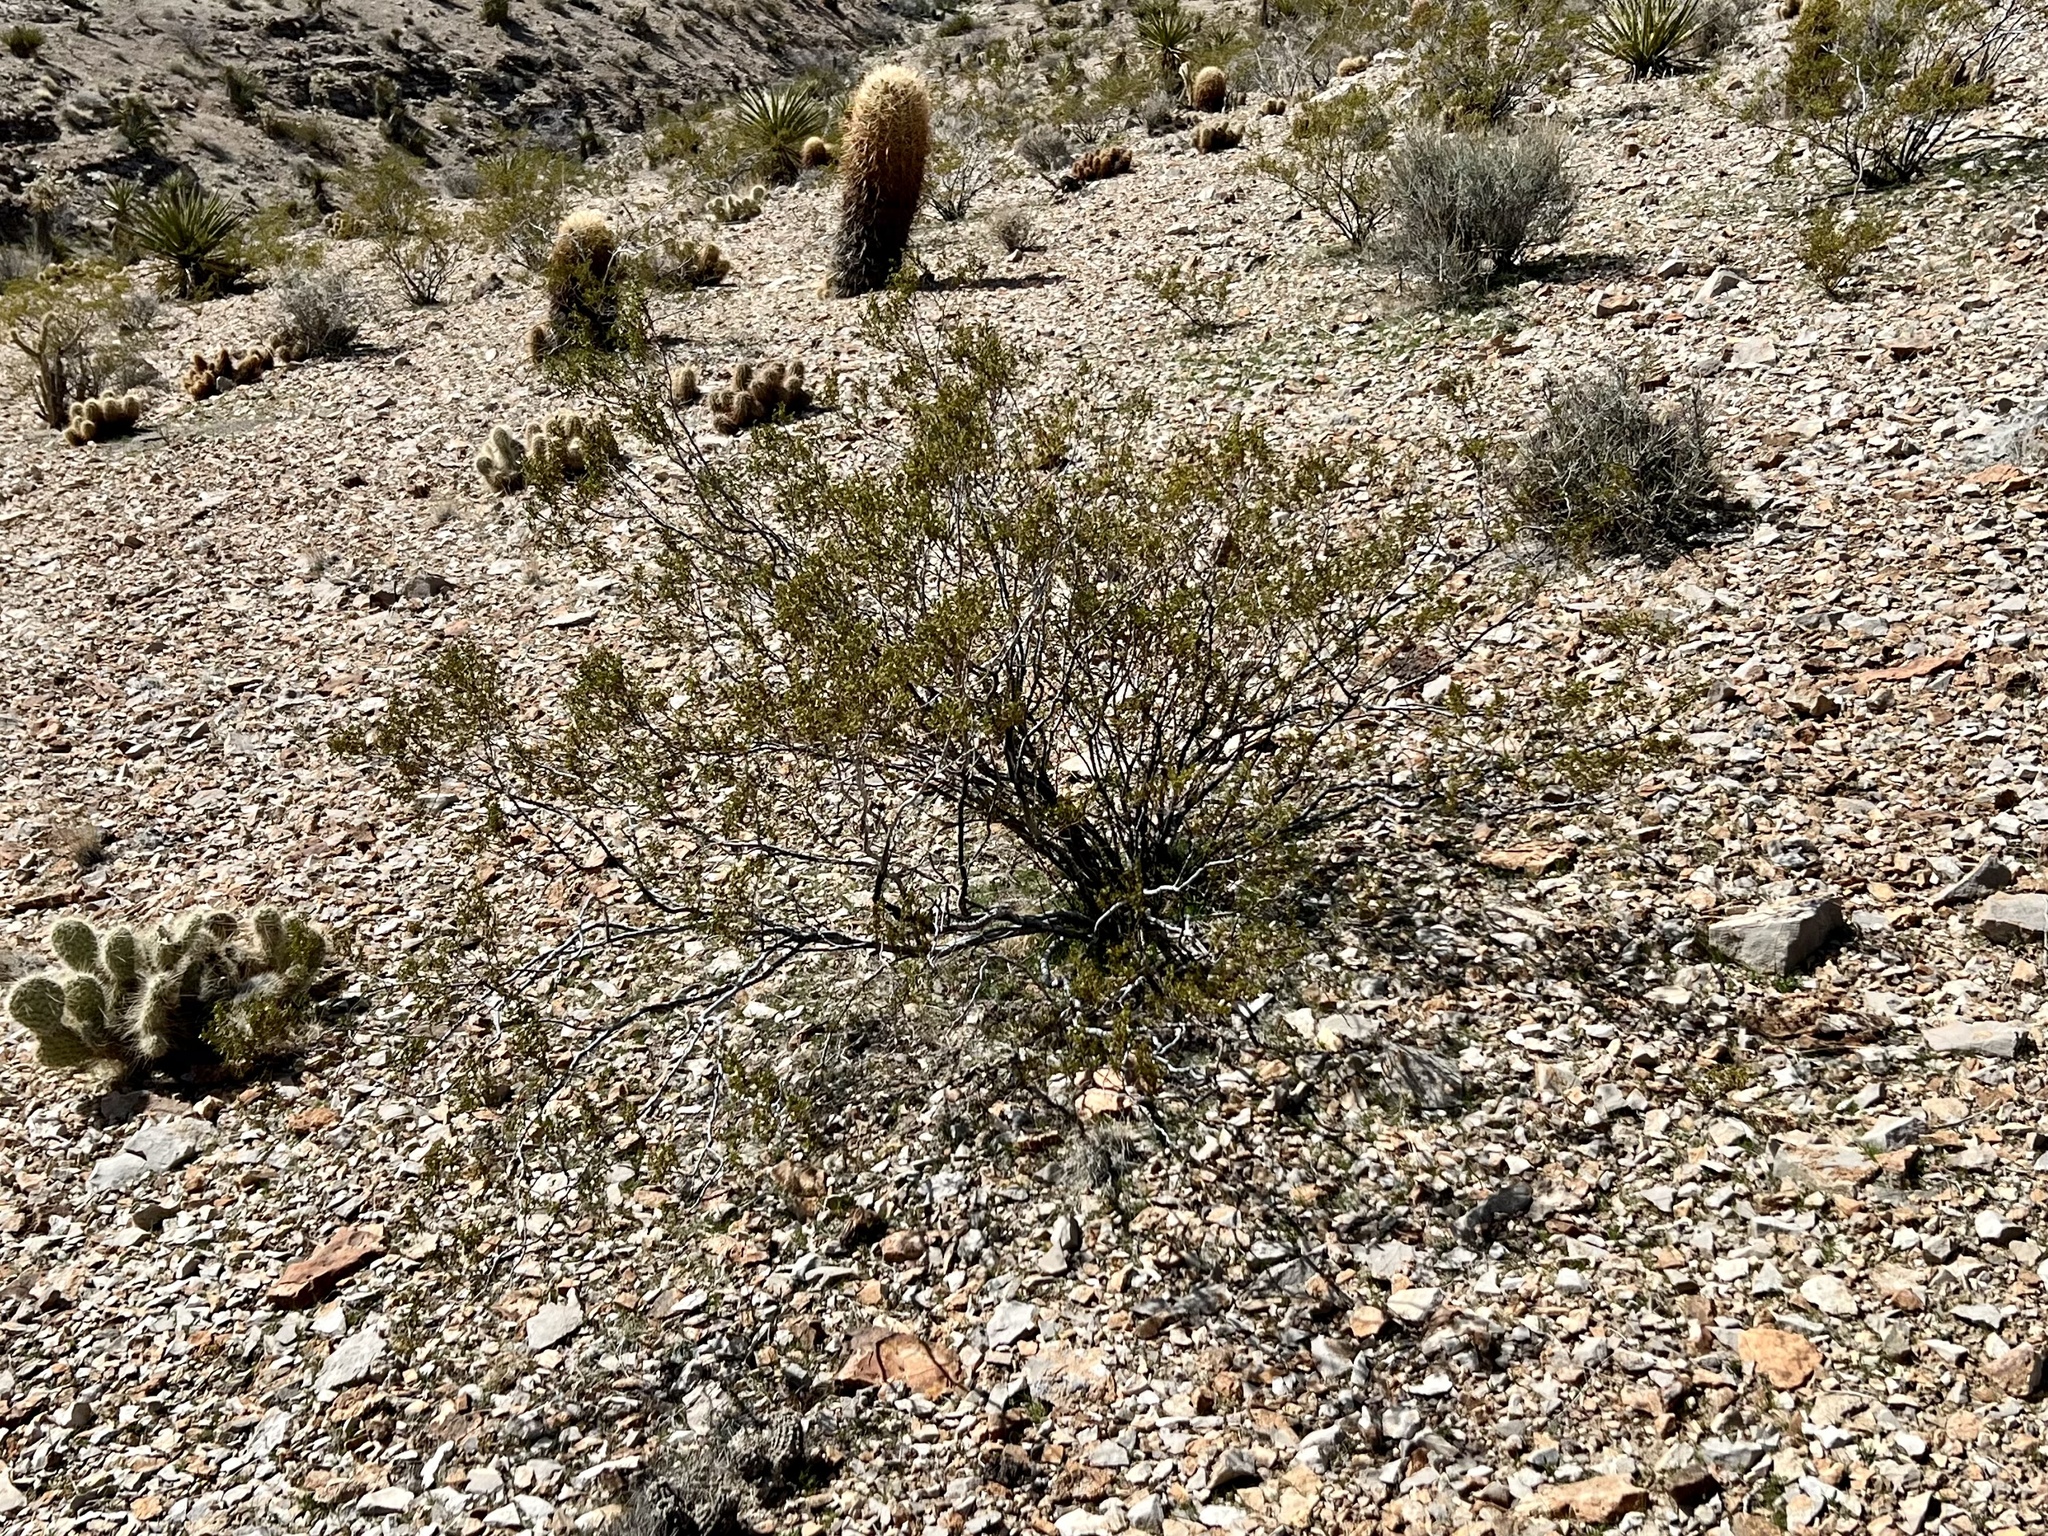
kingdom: Plantae
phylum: Tracheophyta
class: Magnoliopsida
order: Zygophyllales
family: Zygophyllaceae
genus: Larrea
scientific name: Larrea tridentata
